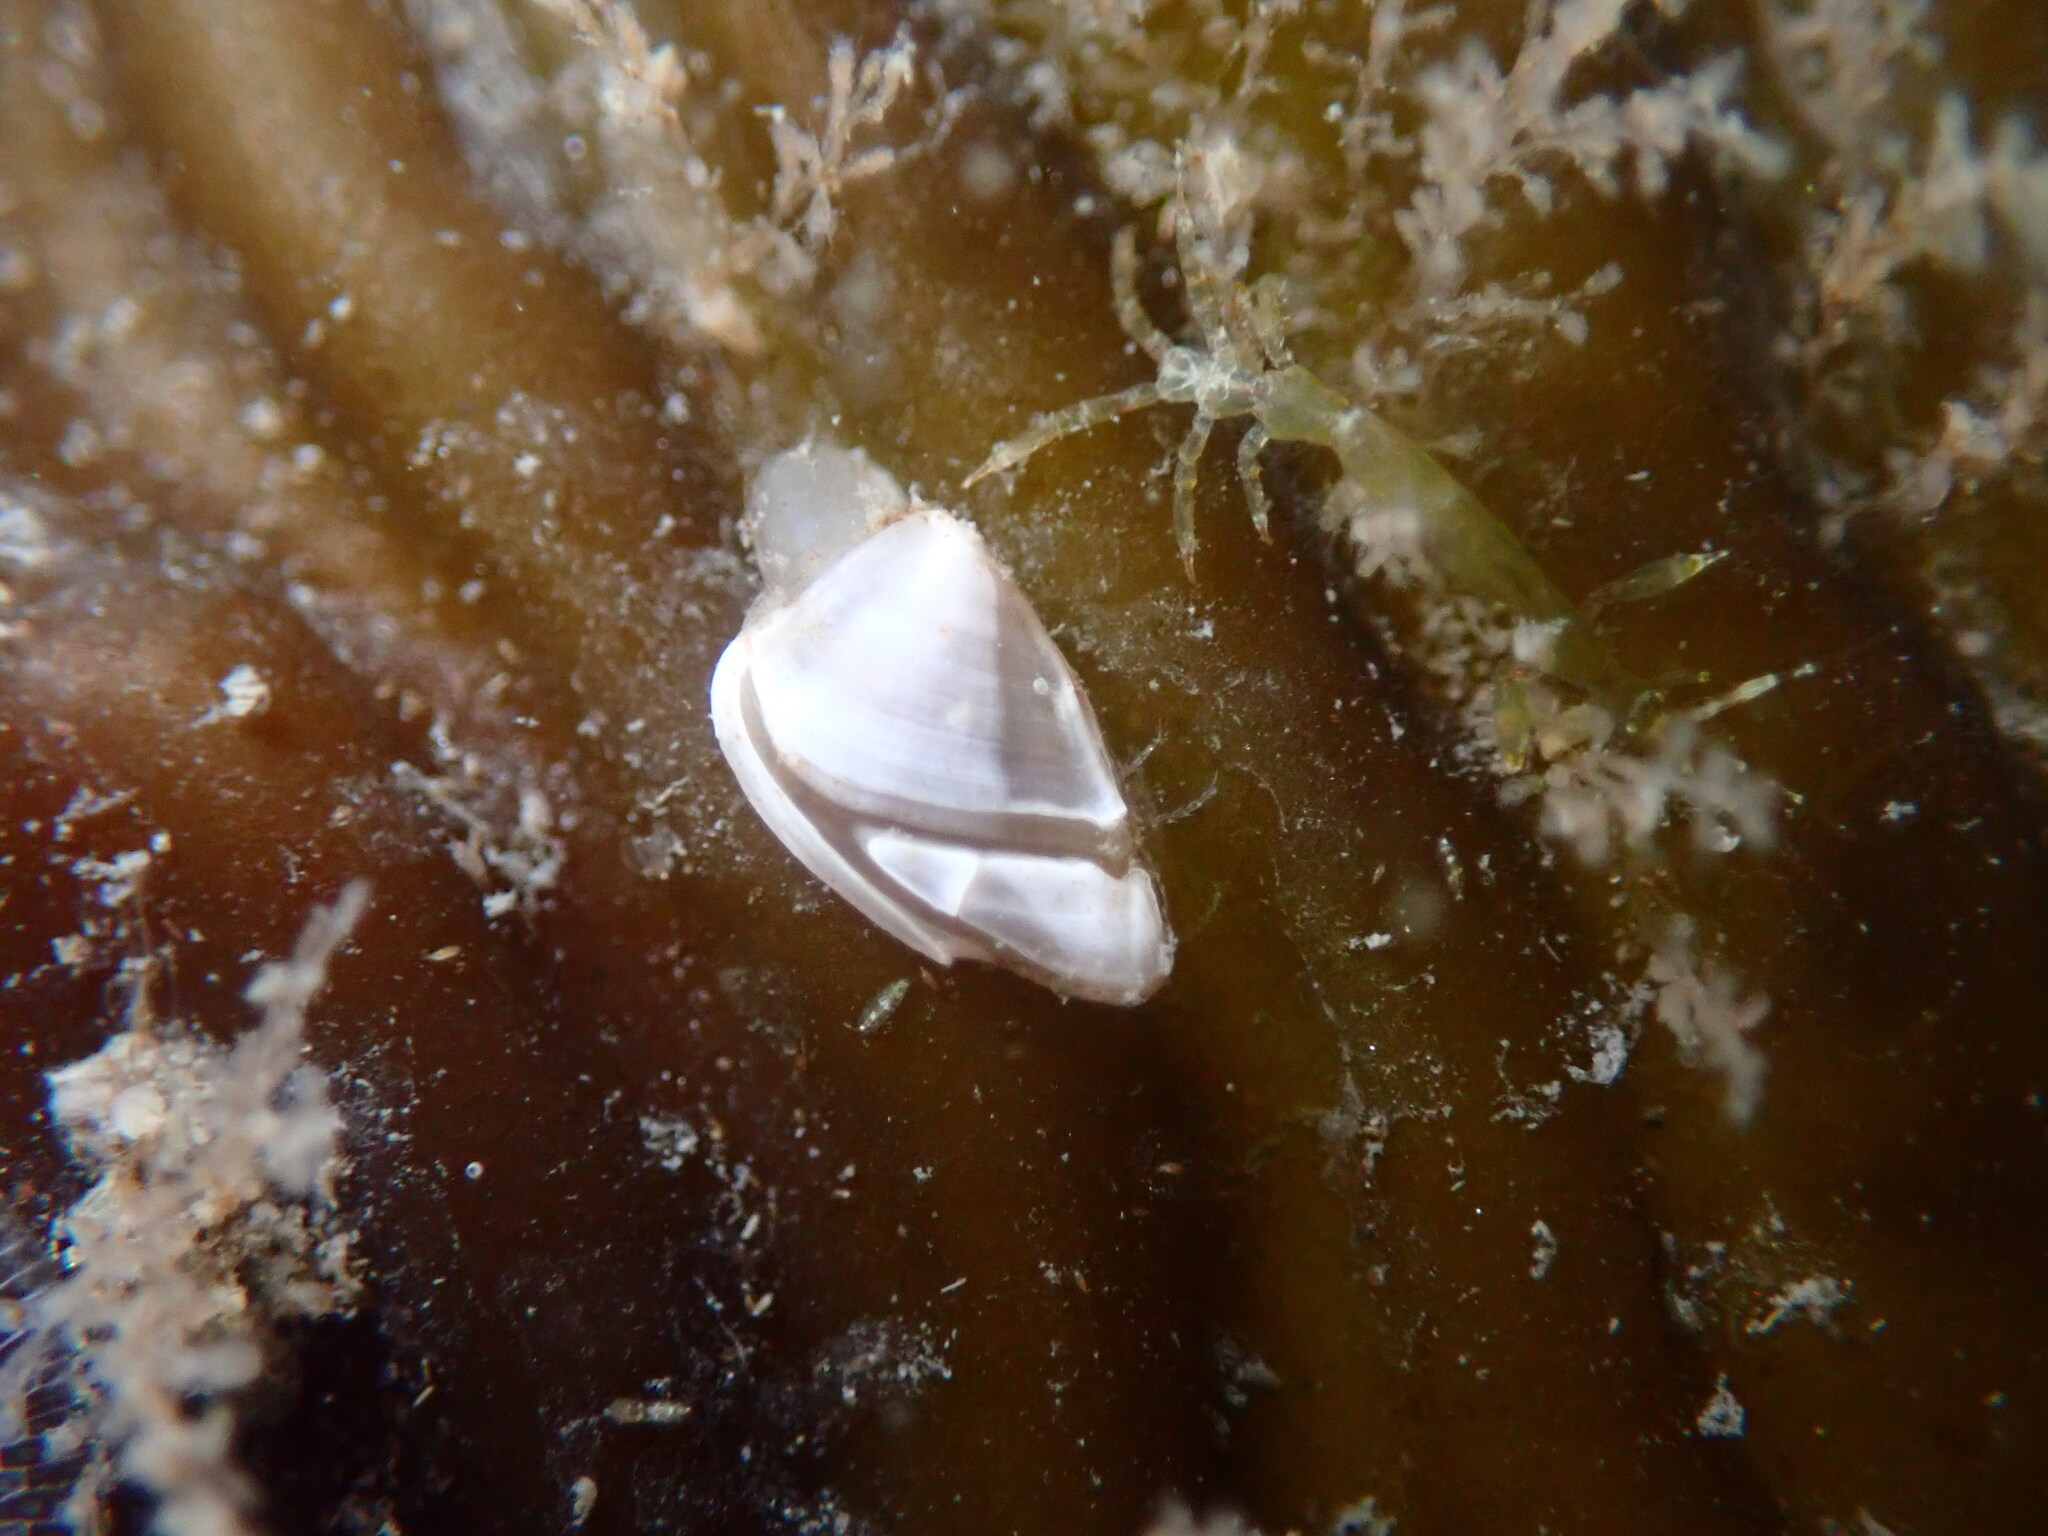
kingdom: Animalia
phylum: Arthropoda
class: Maxillopoda
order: Pedunculata
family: Lepadidae
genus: Lepas
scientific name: Lepas pacifica
